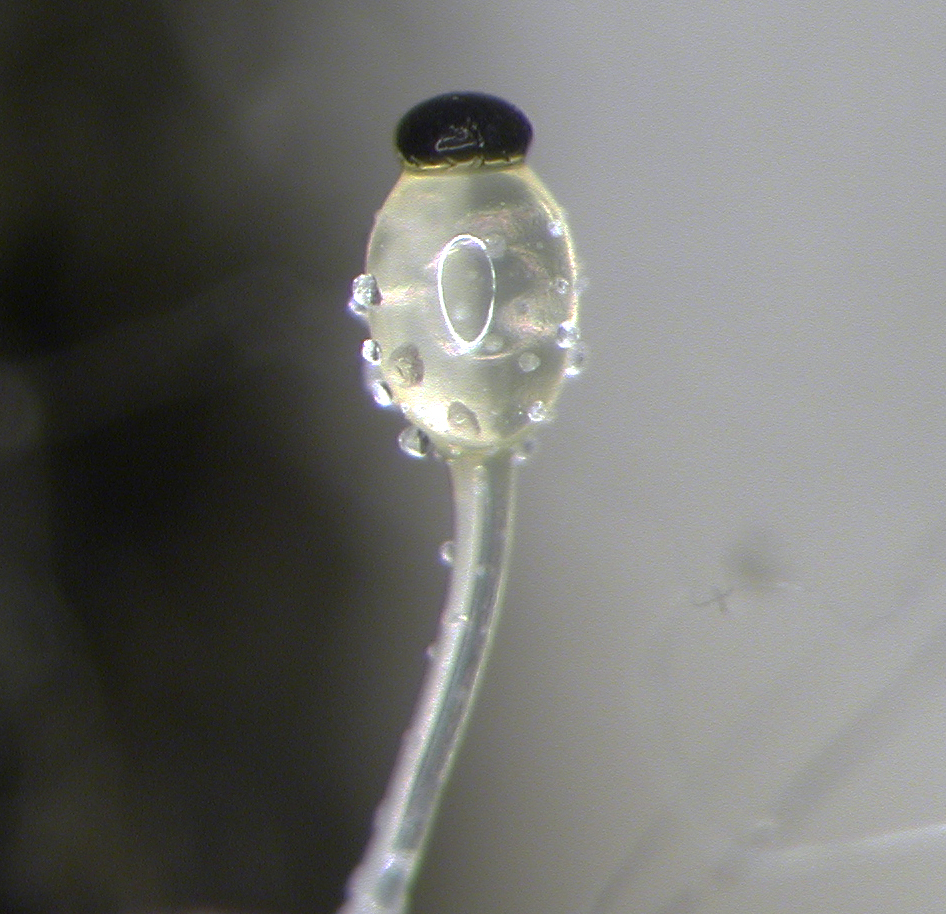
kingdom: Fungi
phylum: Mucoromycota
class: Mucoromycetes
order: Mucorales
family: Pilobolaceae
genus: Pilobolus
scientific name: Pilobolus crystallinus
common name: Dung cannon
